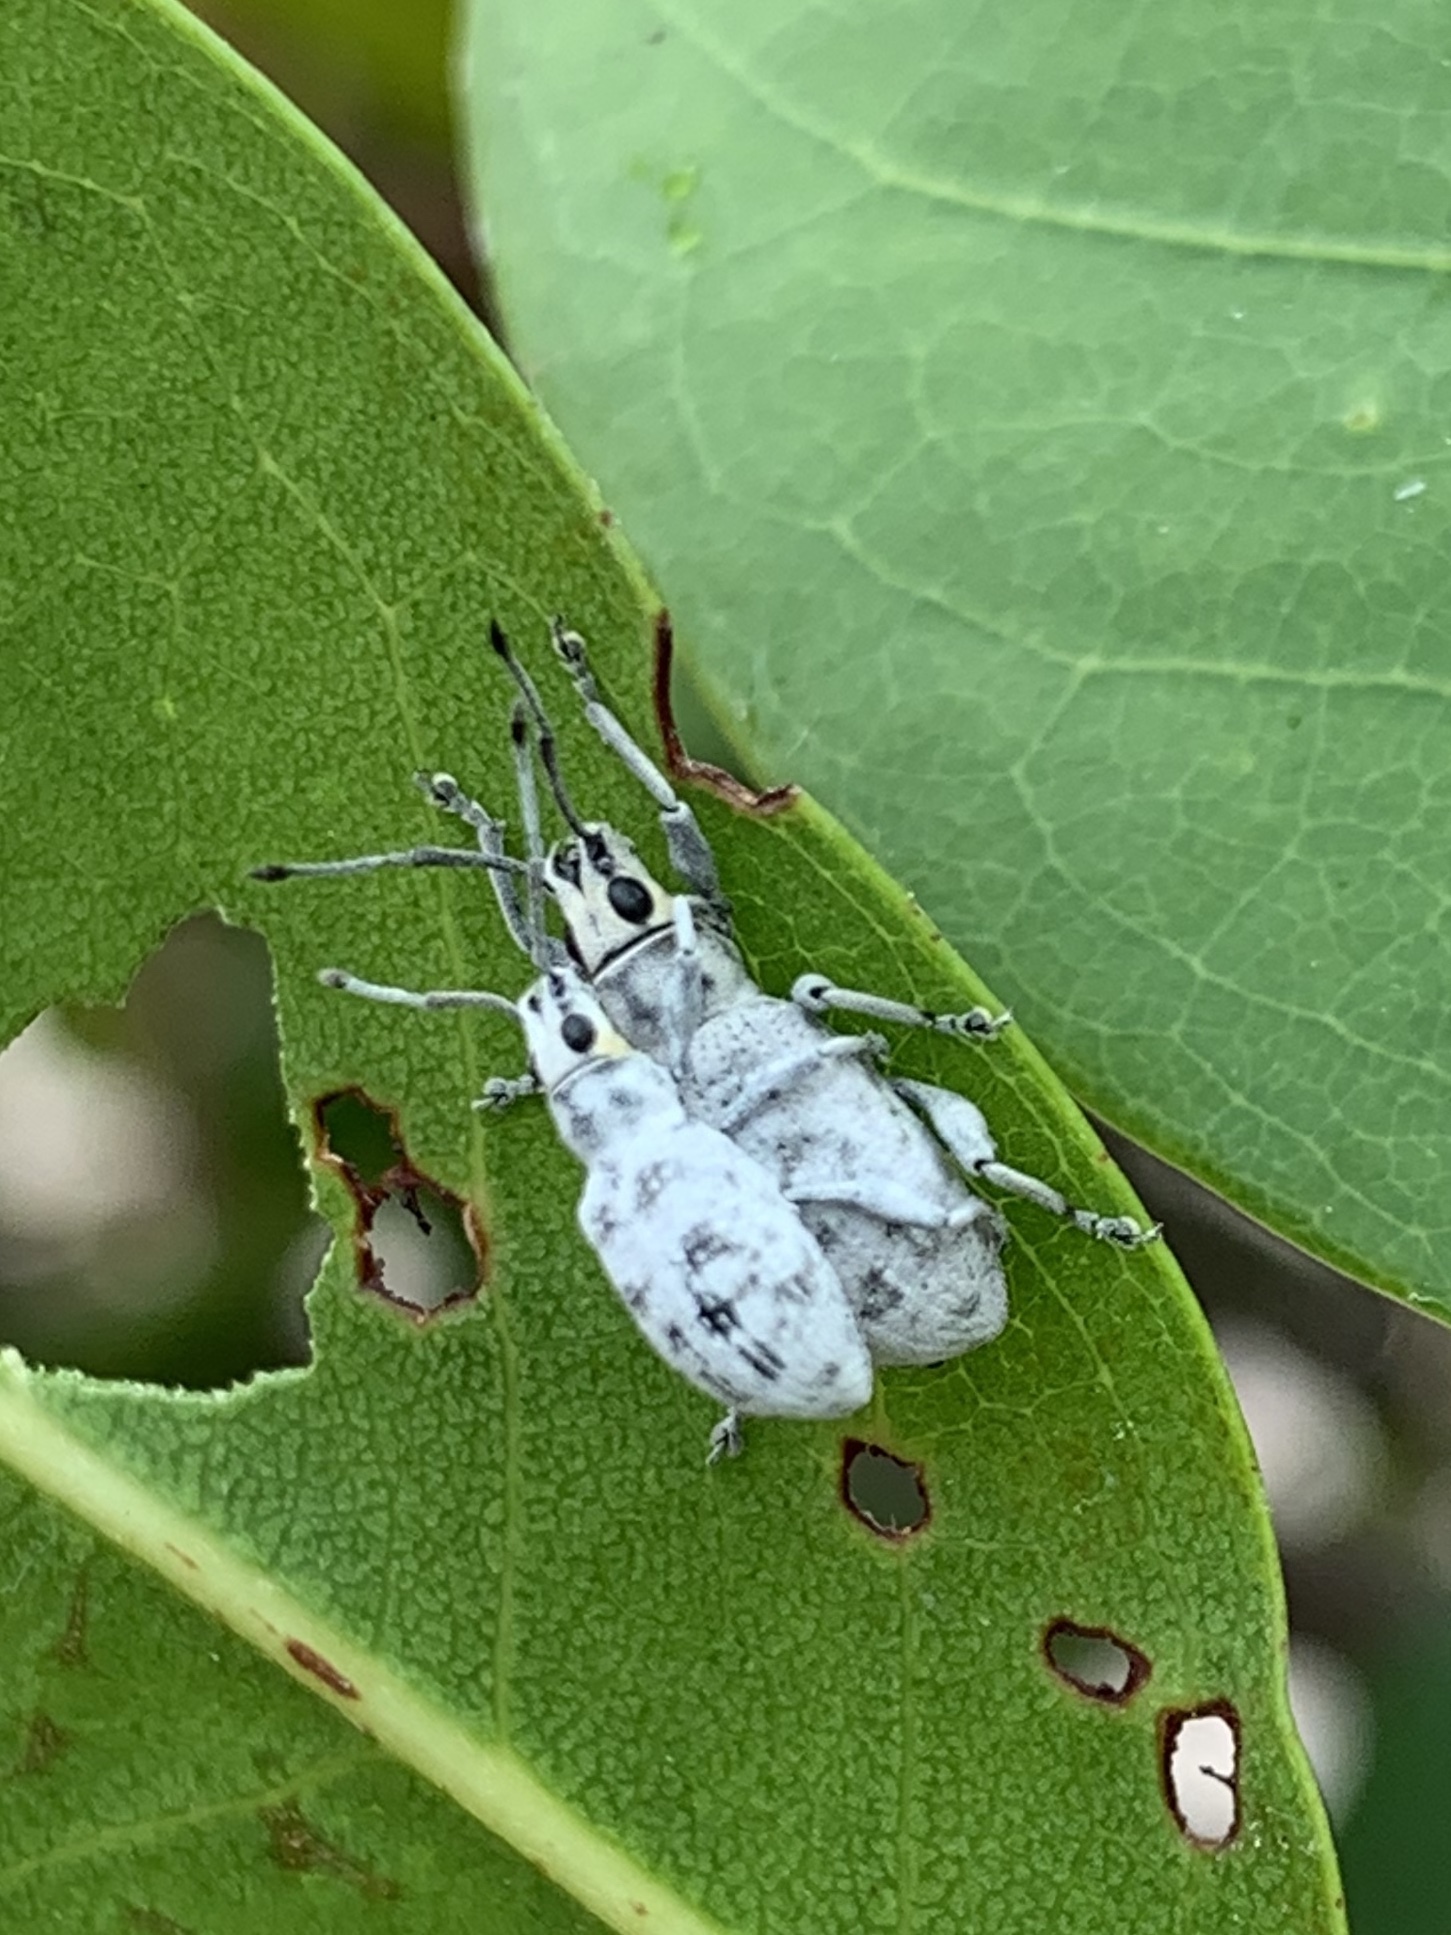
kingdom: Animalia
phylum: Arthropoda
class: Insecta
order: Coleoptera
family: Curculionidae
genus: Myllocerus
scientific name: Myllocerus undecimpustulatus
